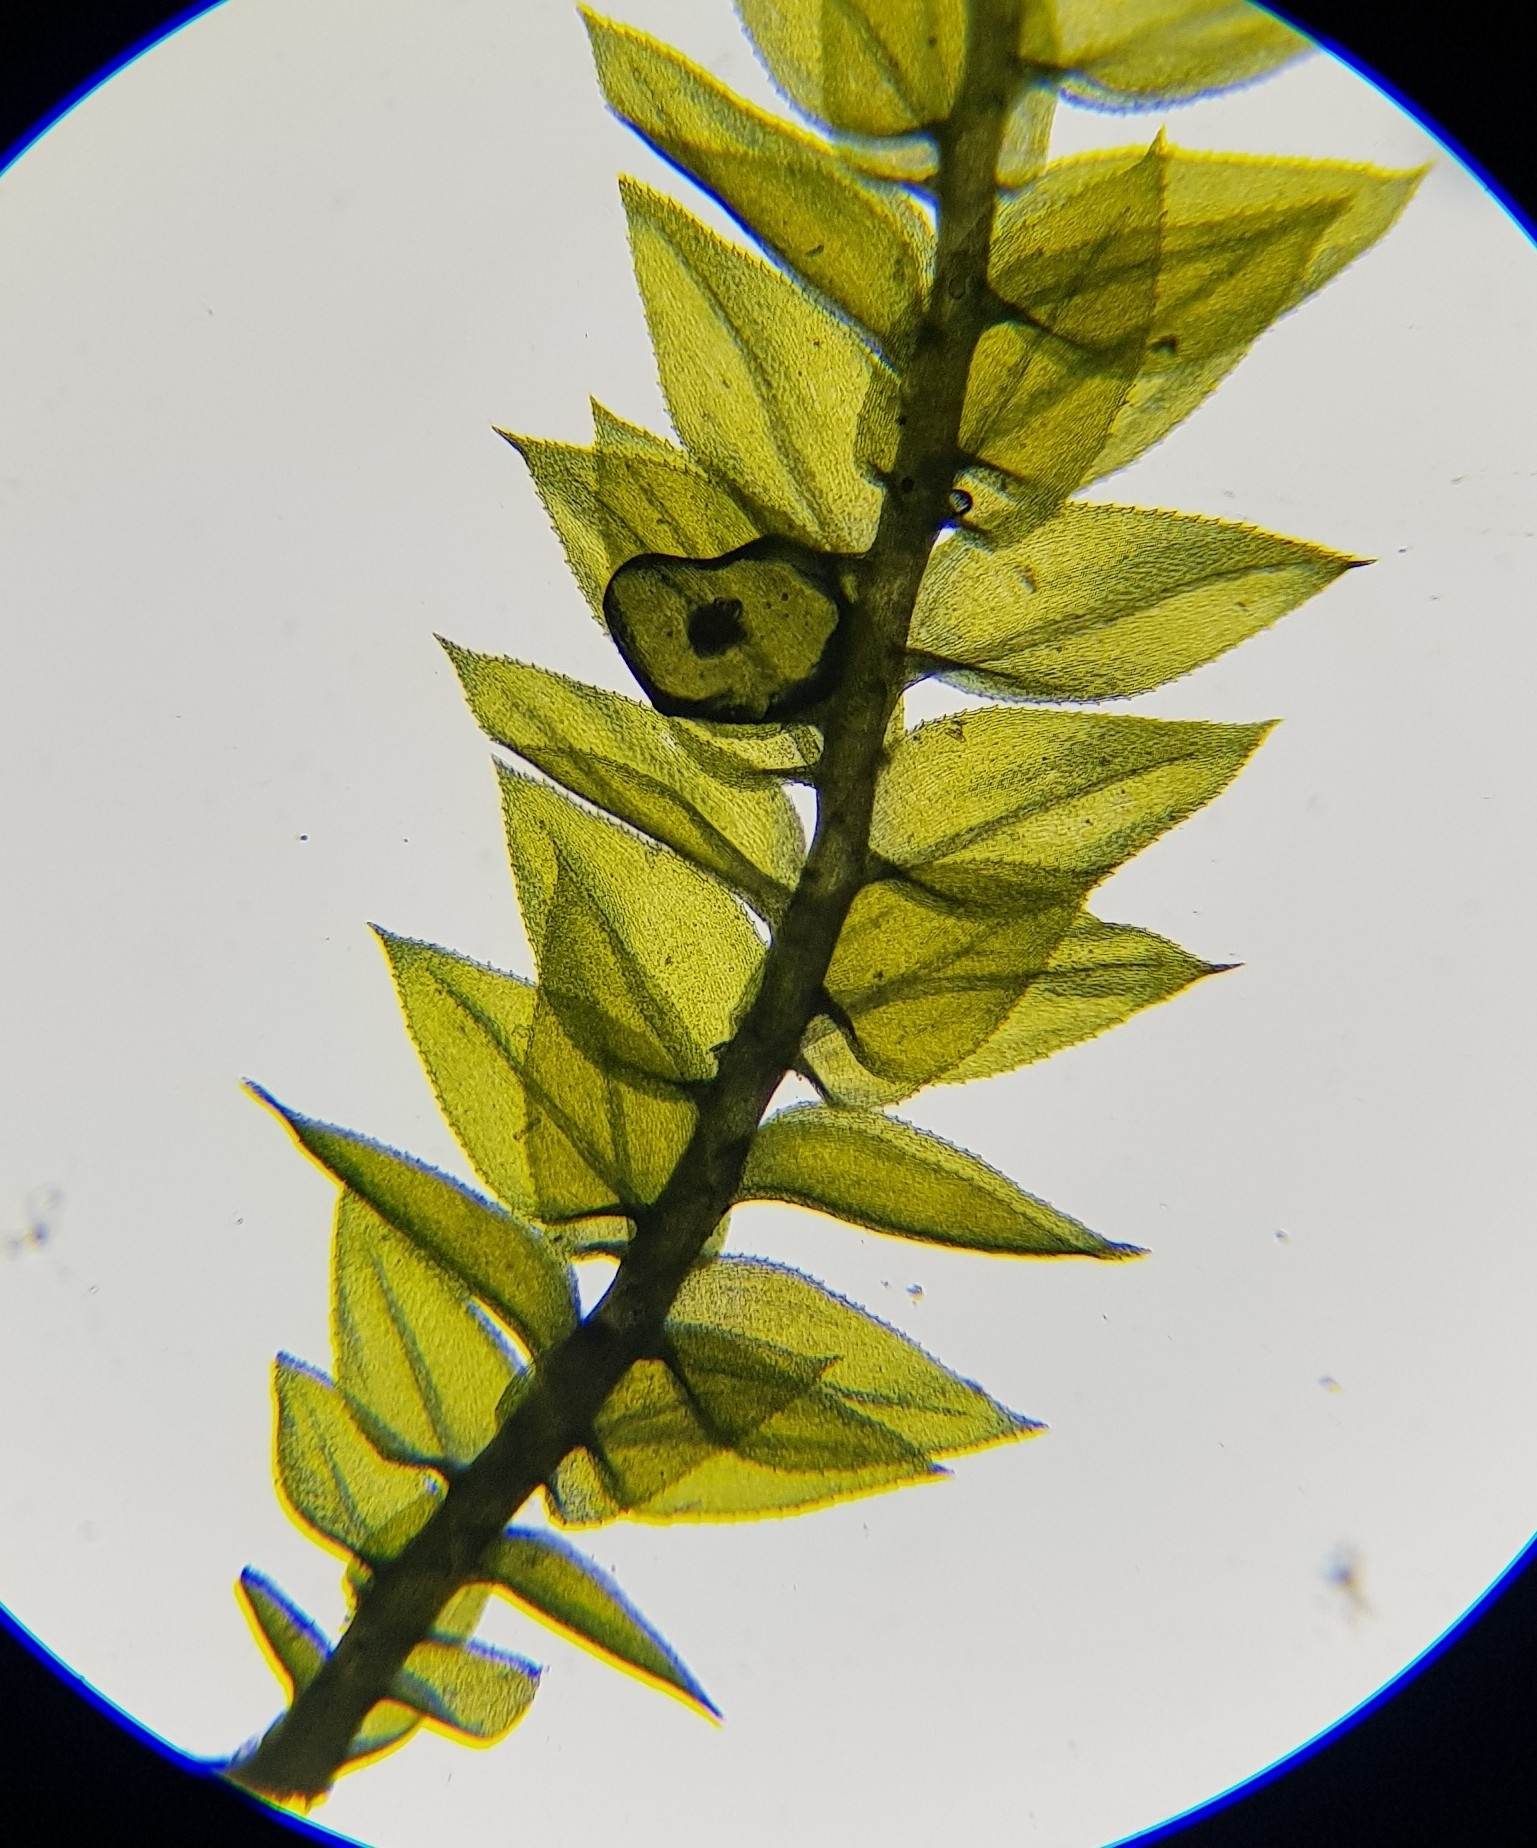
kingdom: Plantae
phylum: Bryophyta
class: Bryopsida
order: Hypnales
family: Brachytheciaceae
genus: Oxyrrhynchium
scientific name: Oxyrrhynchium hians
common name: Spreading beaked moss
